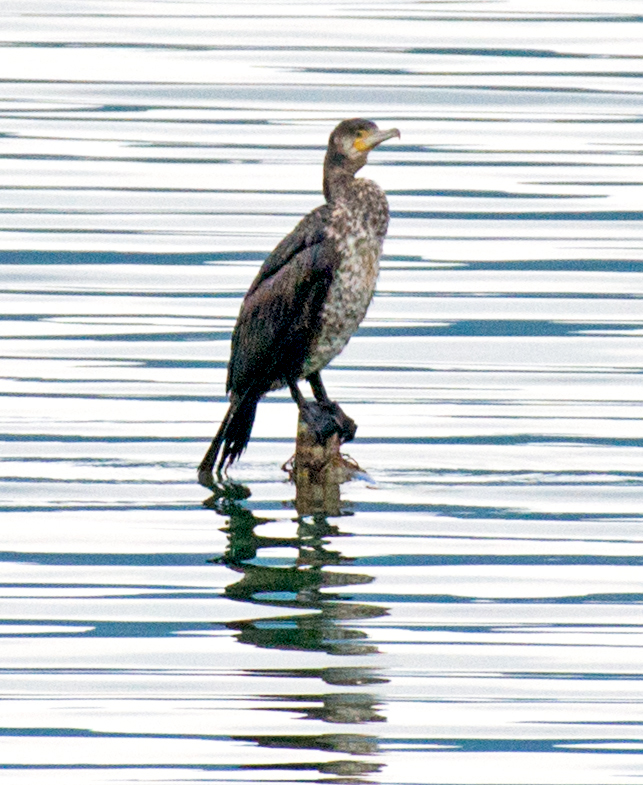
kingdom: Animalia
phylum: Chordata
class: Aves
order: Suliformes
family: Phalacrocoracidae
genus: Phalacrocorax
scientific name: Phalacrocorax carbo
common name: Great cormorant
